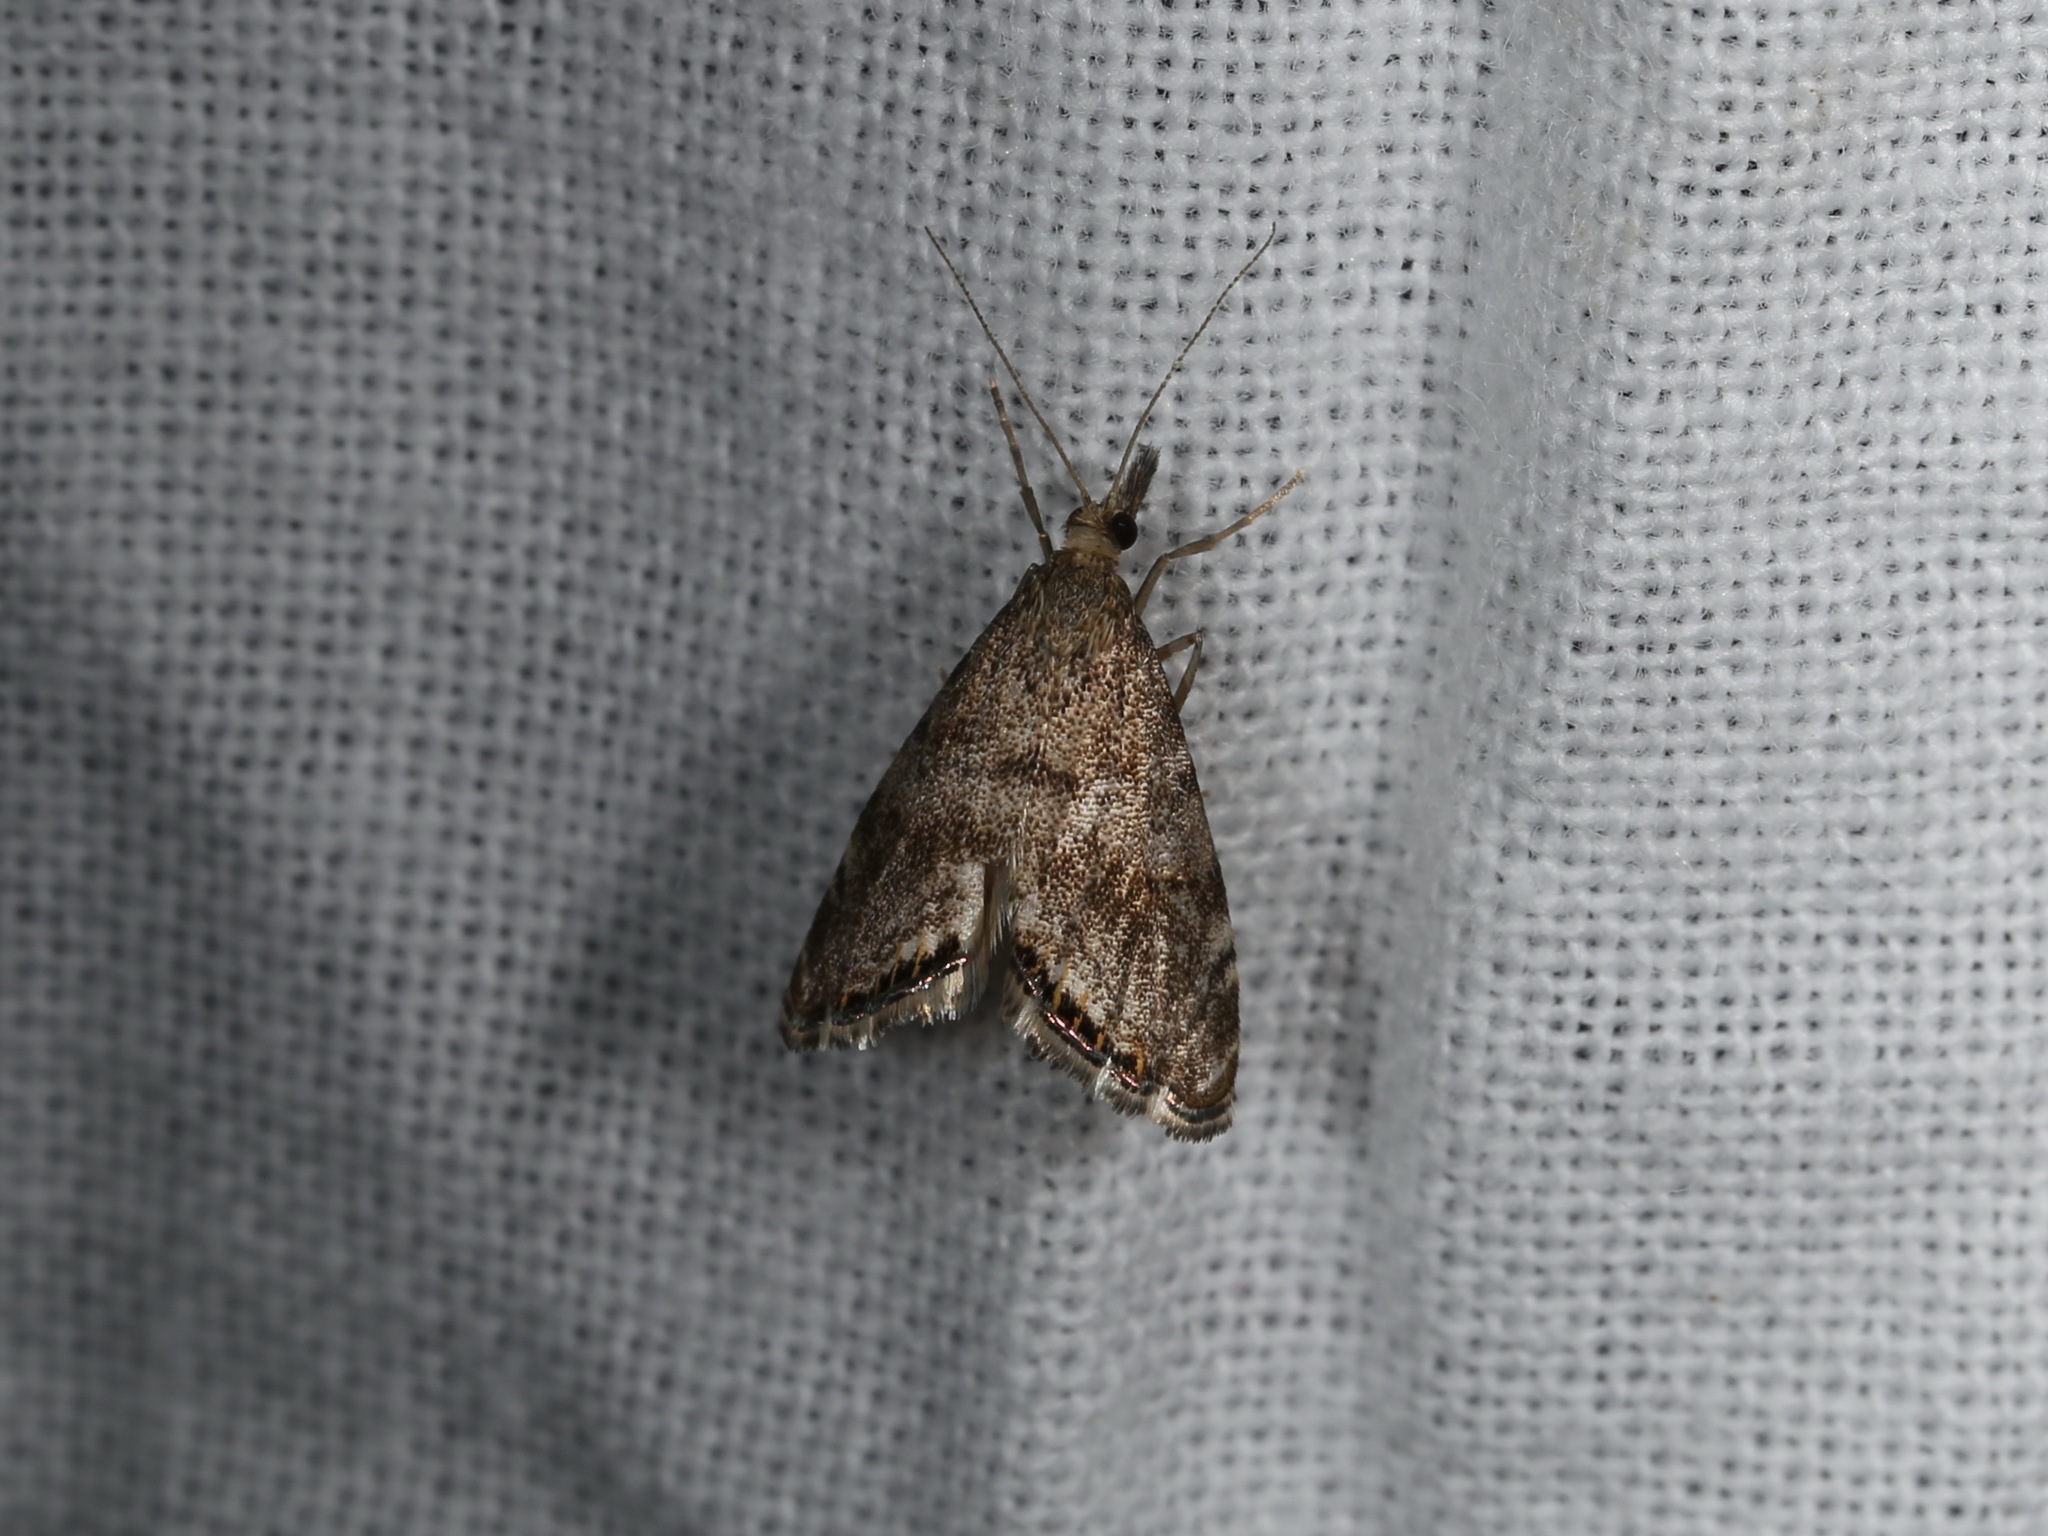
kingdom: Animalia
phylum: Arthropoda
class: Insecta
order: Lepidoptera
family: Crambidae
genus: Glaucocharis
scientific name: Glaucocharis dilatella
